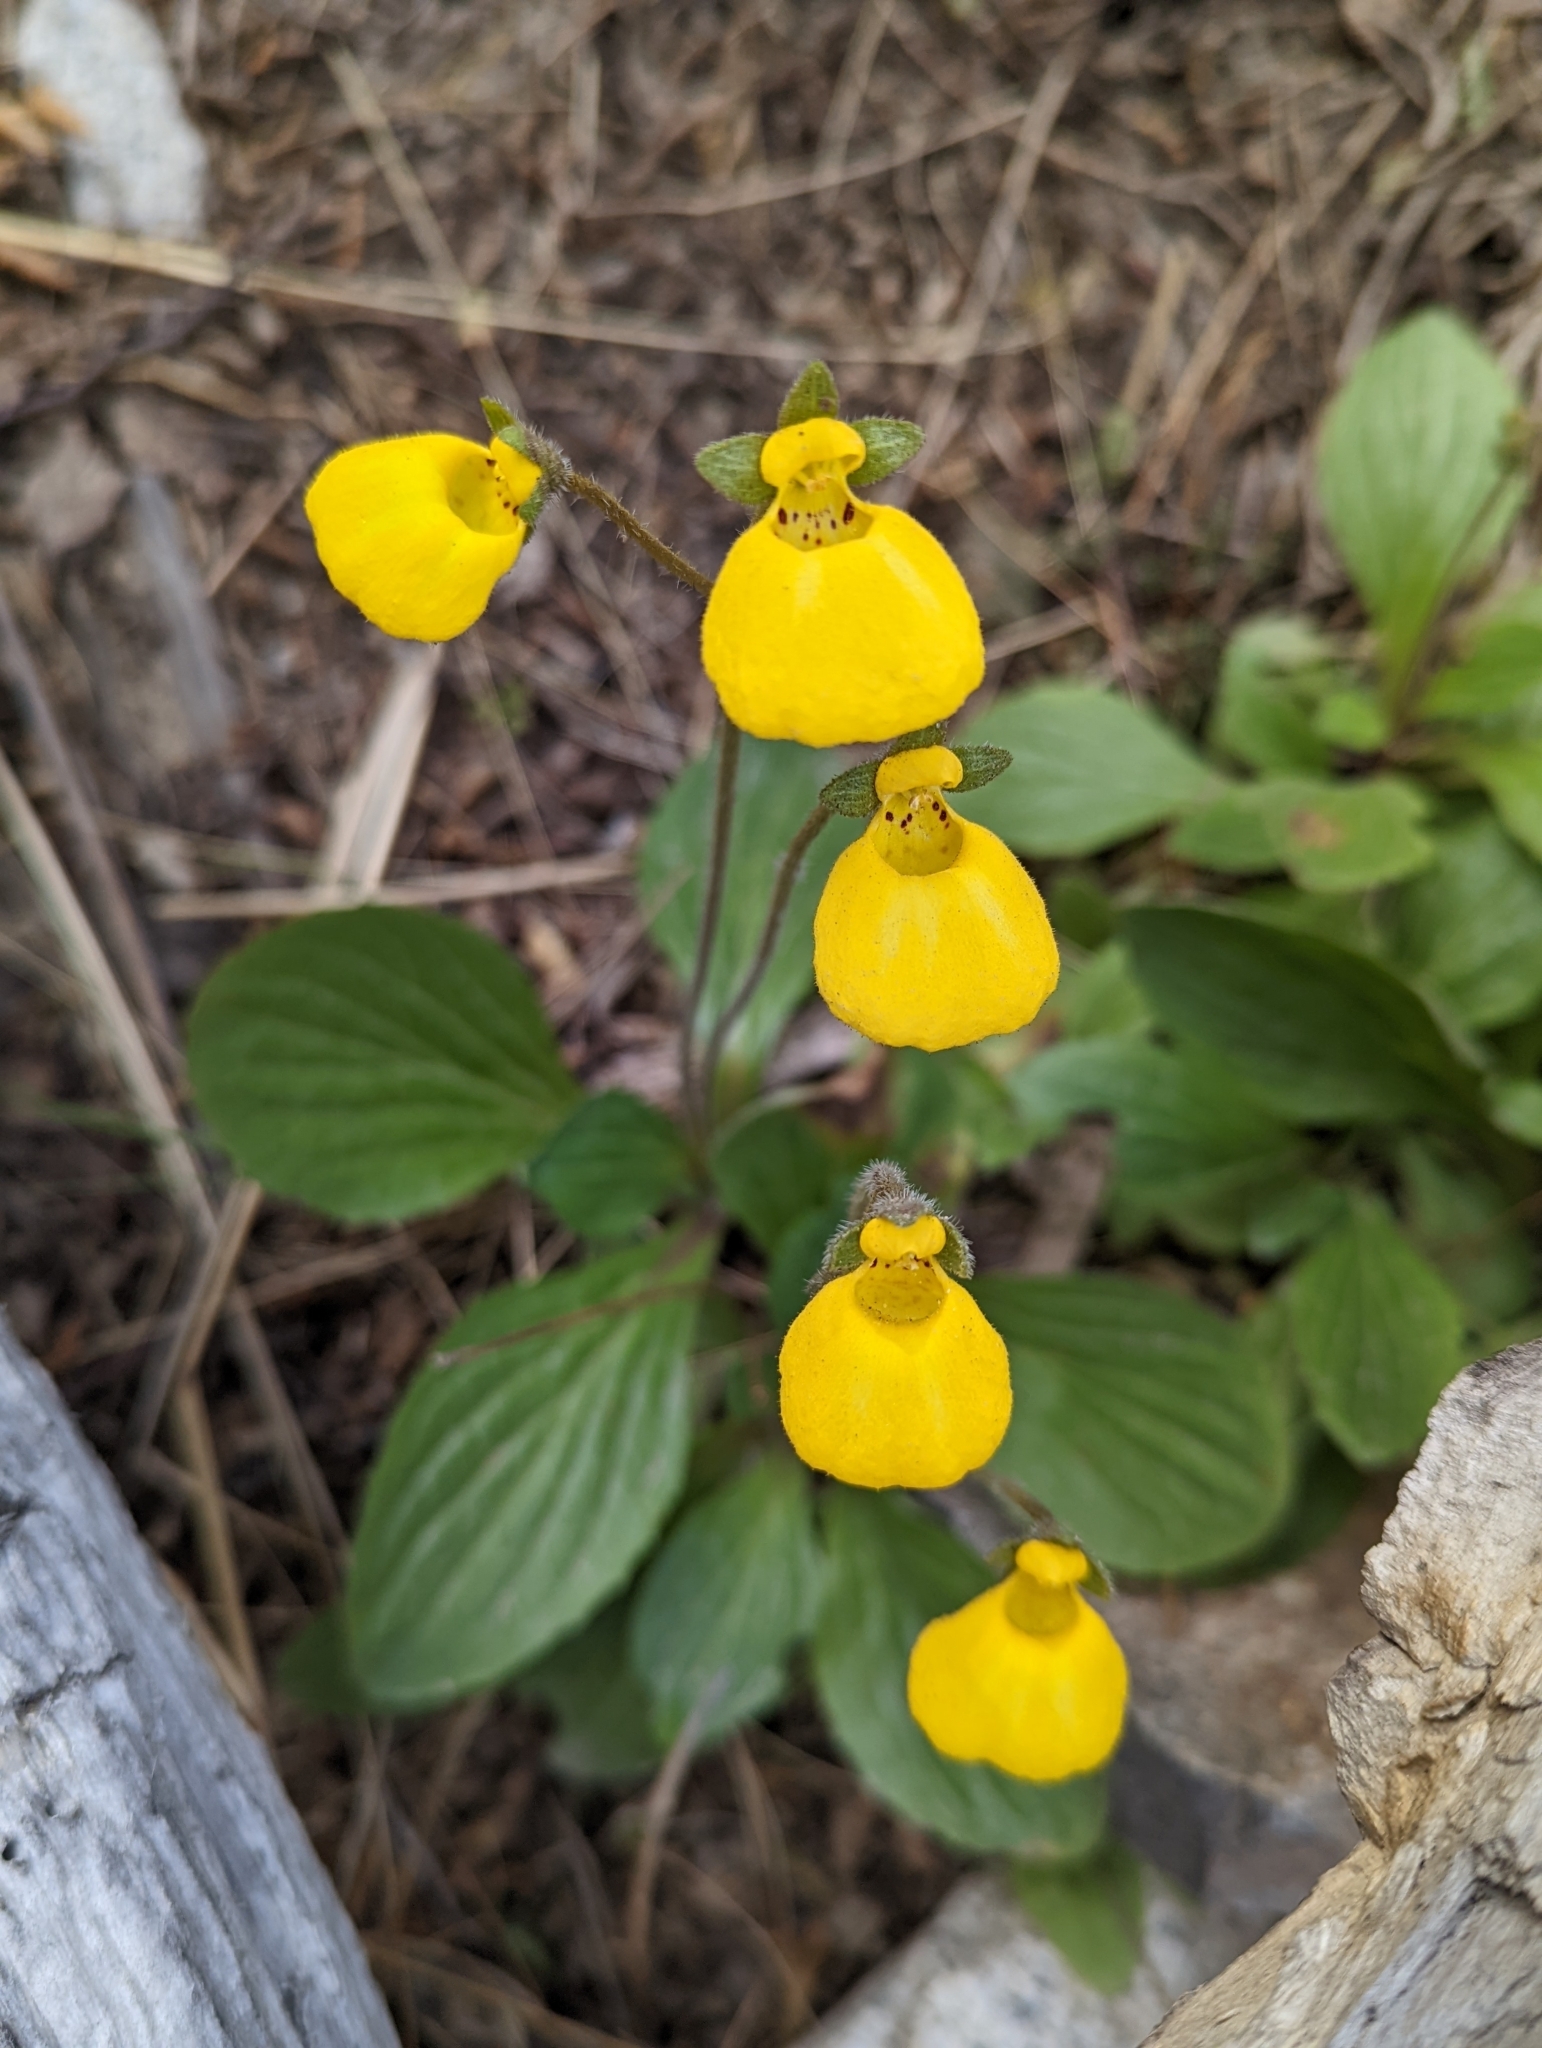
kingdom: Plantae
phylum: Tracheophyta
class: Magnoliopsida
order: Lamiales
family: Calceolariaceae
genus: Calceolaria
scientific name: Calceolaria biflora
